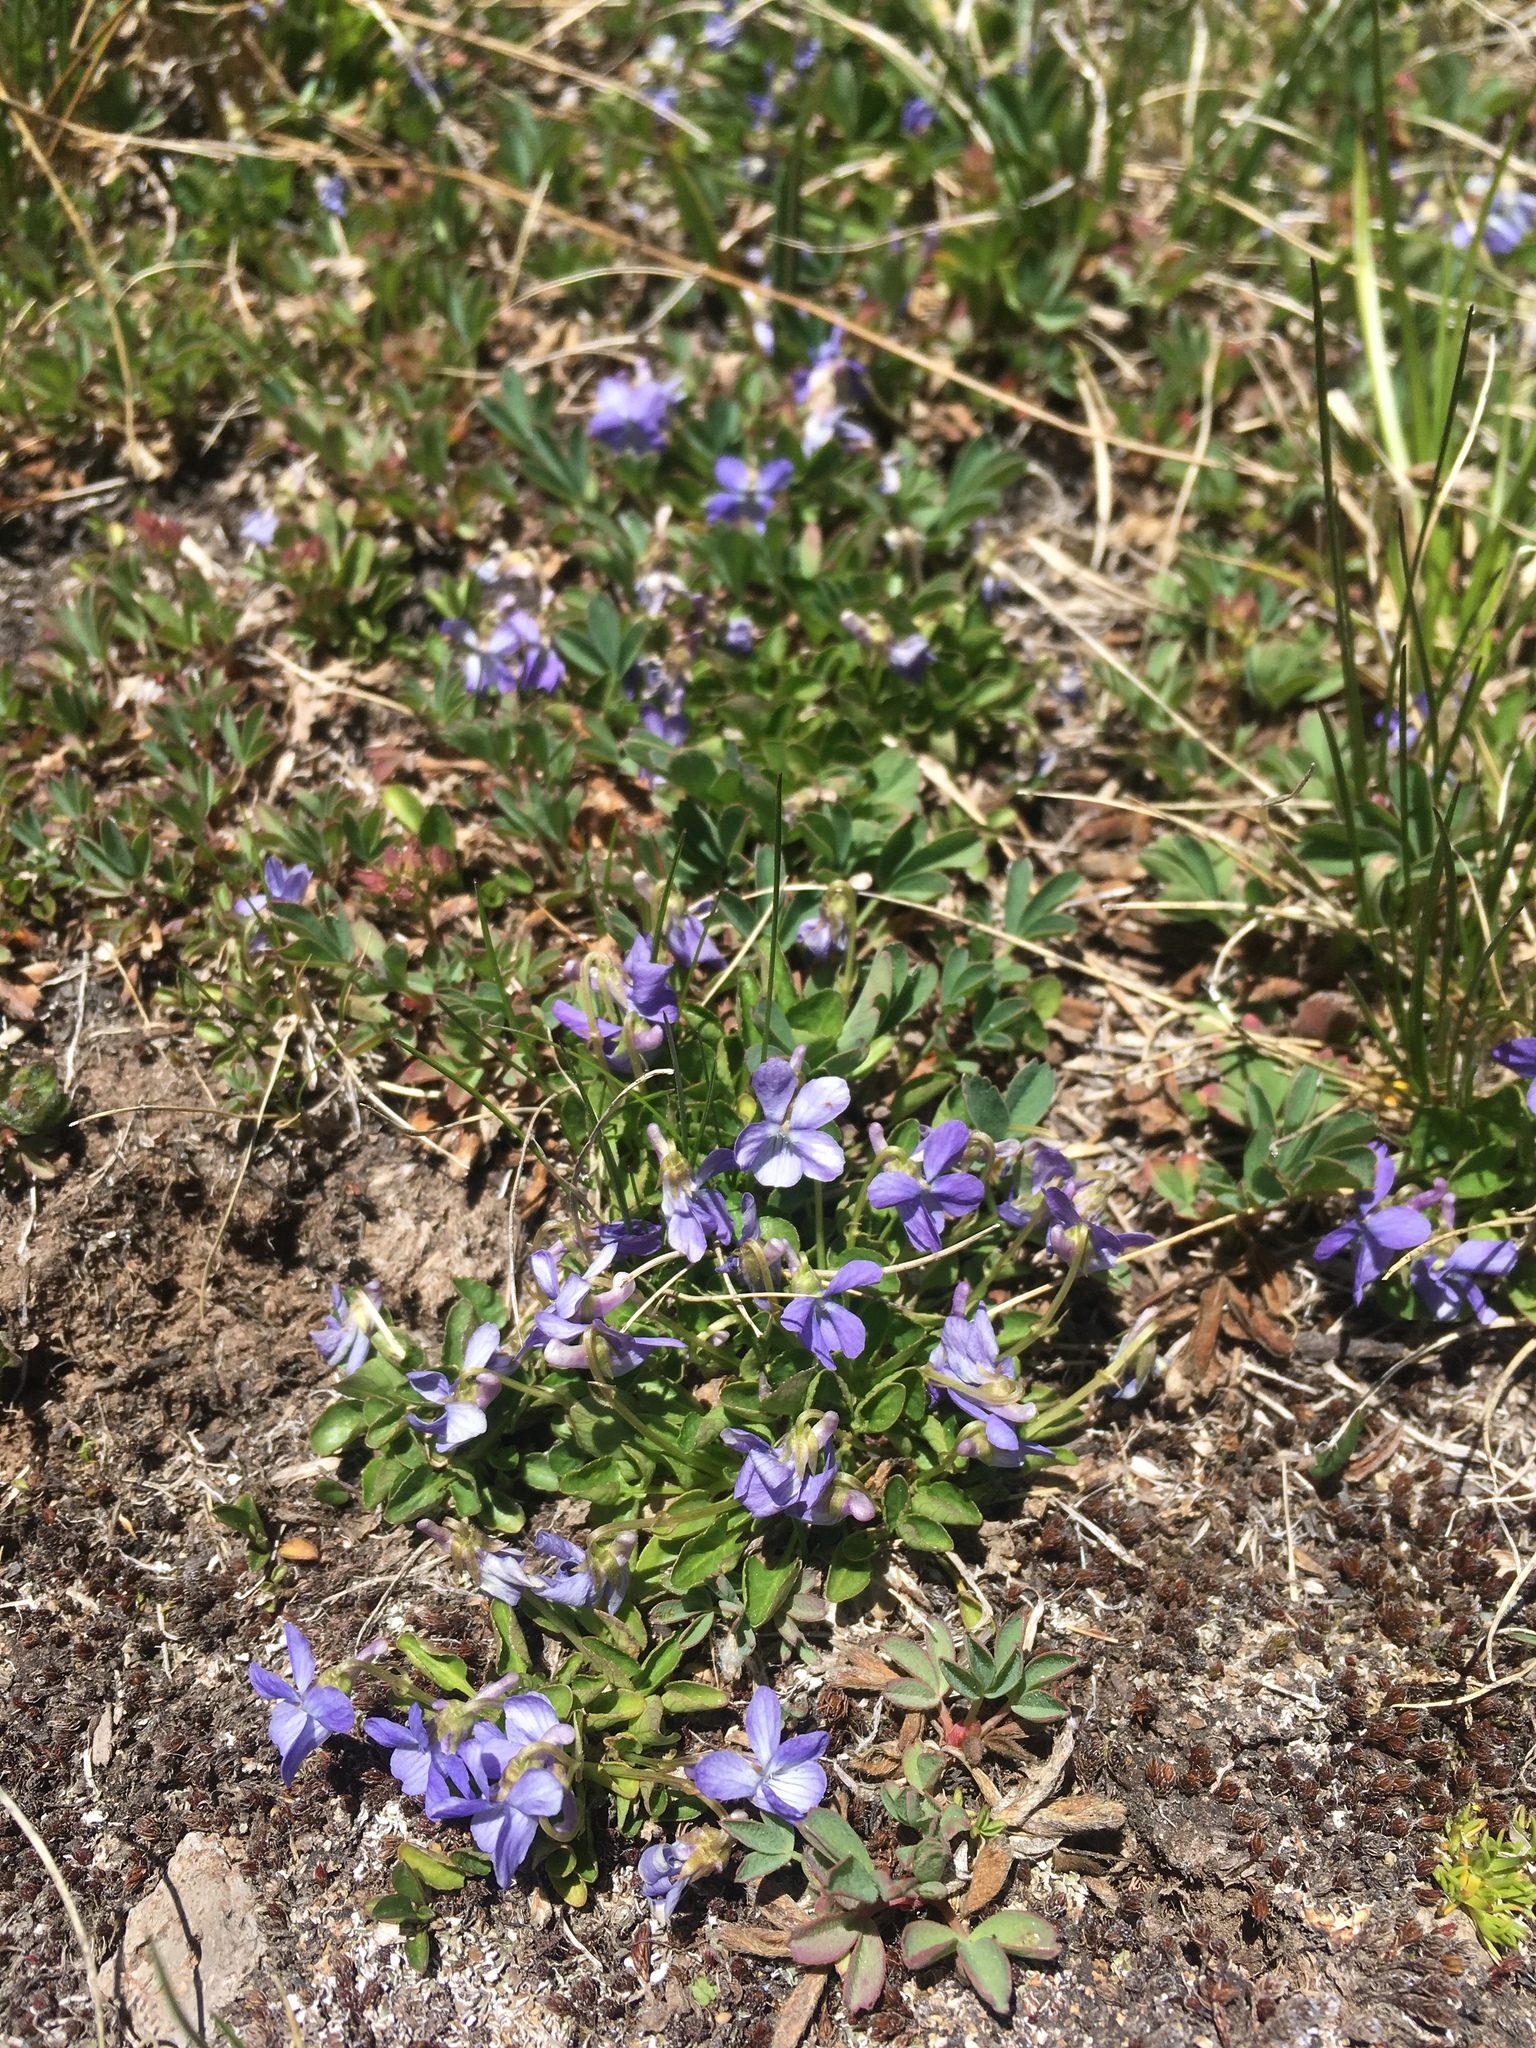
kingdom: Plantae
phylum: Tracheophyta
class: Magnoliopsida
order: Malpighiales
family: Violaceae
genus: Viola
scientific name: Viola adunca
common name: Sand violet
